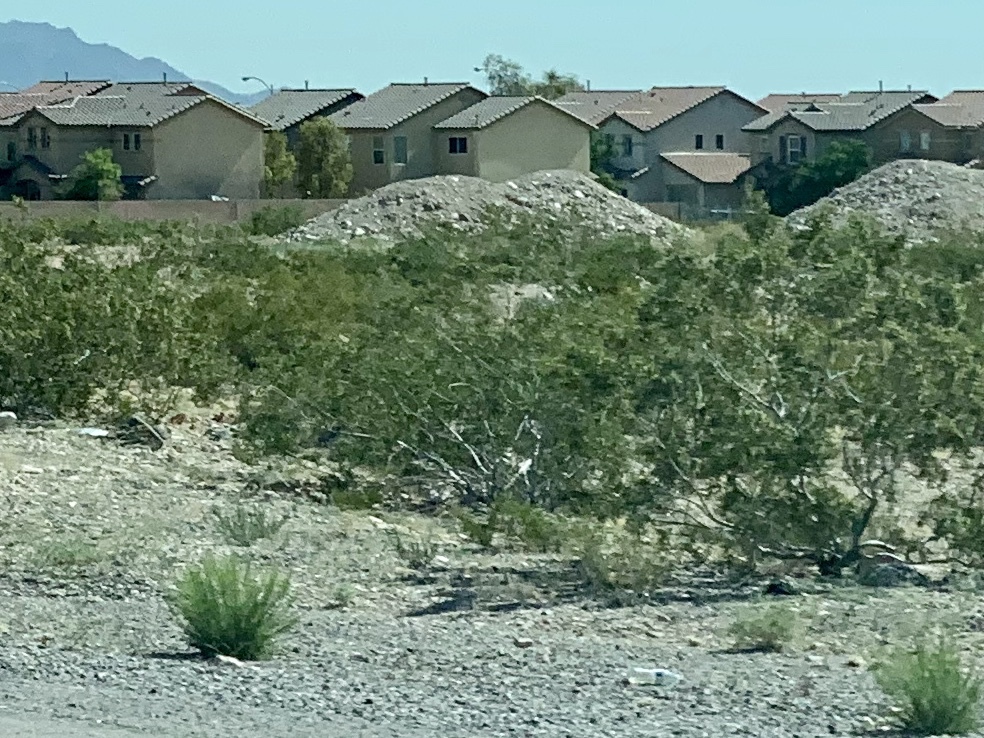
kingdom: Plantae
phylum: Tracheophyta
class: Magnoliopsida
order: Zygophyllales
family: Zygophyllaceae
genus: Larrea
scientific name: Larrea tridentata
